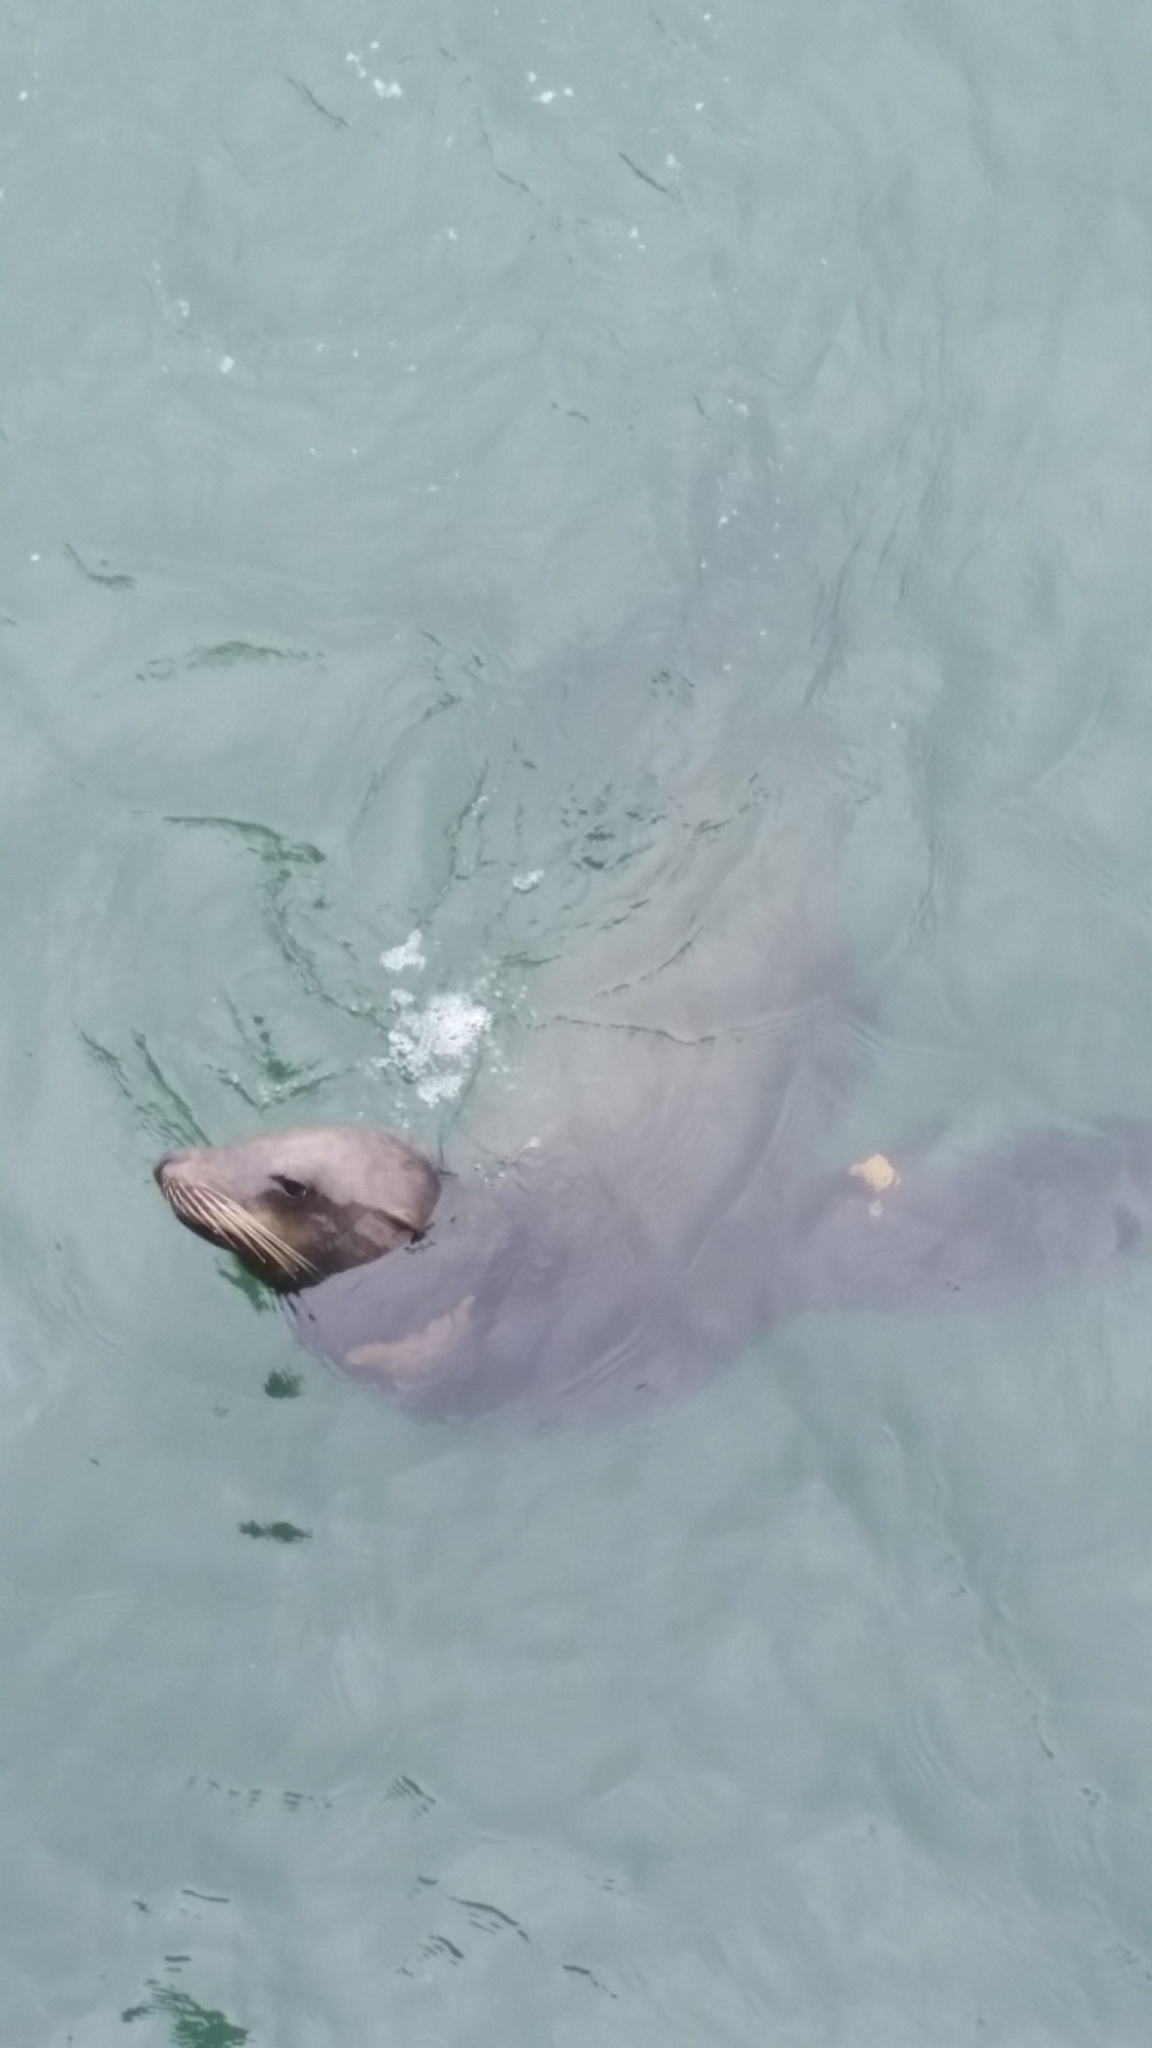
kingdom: Animalia
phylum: Chordata
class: Mammalia
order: Carnivora
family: Otariidae
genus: Zalophus
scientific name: Zalophus californianus
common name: California sea lion
